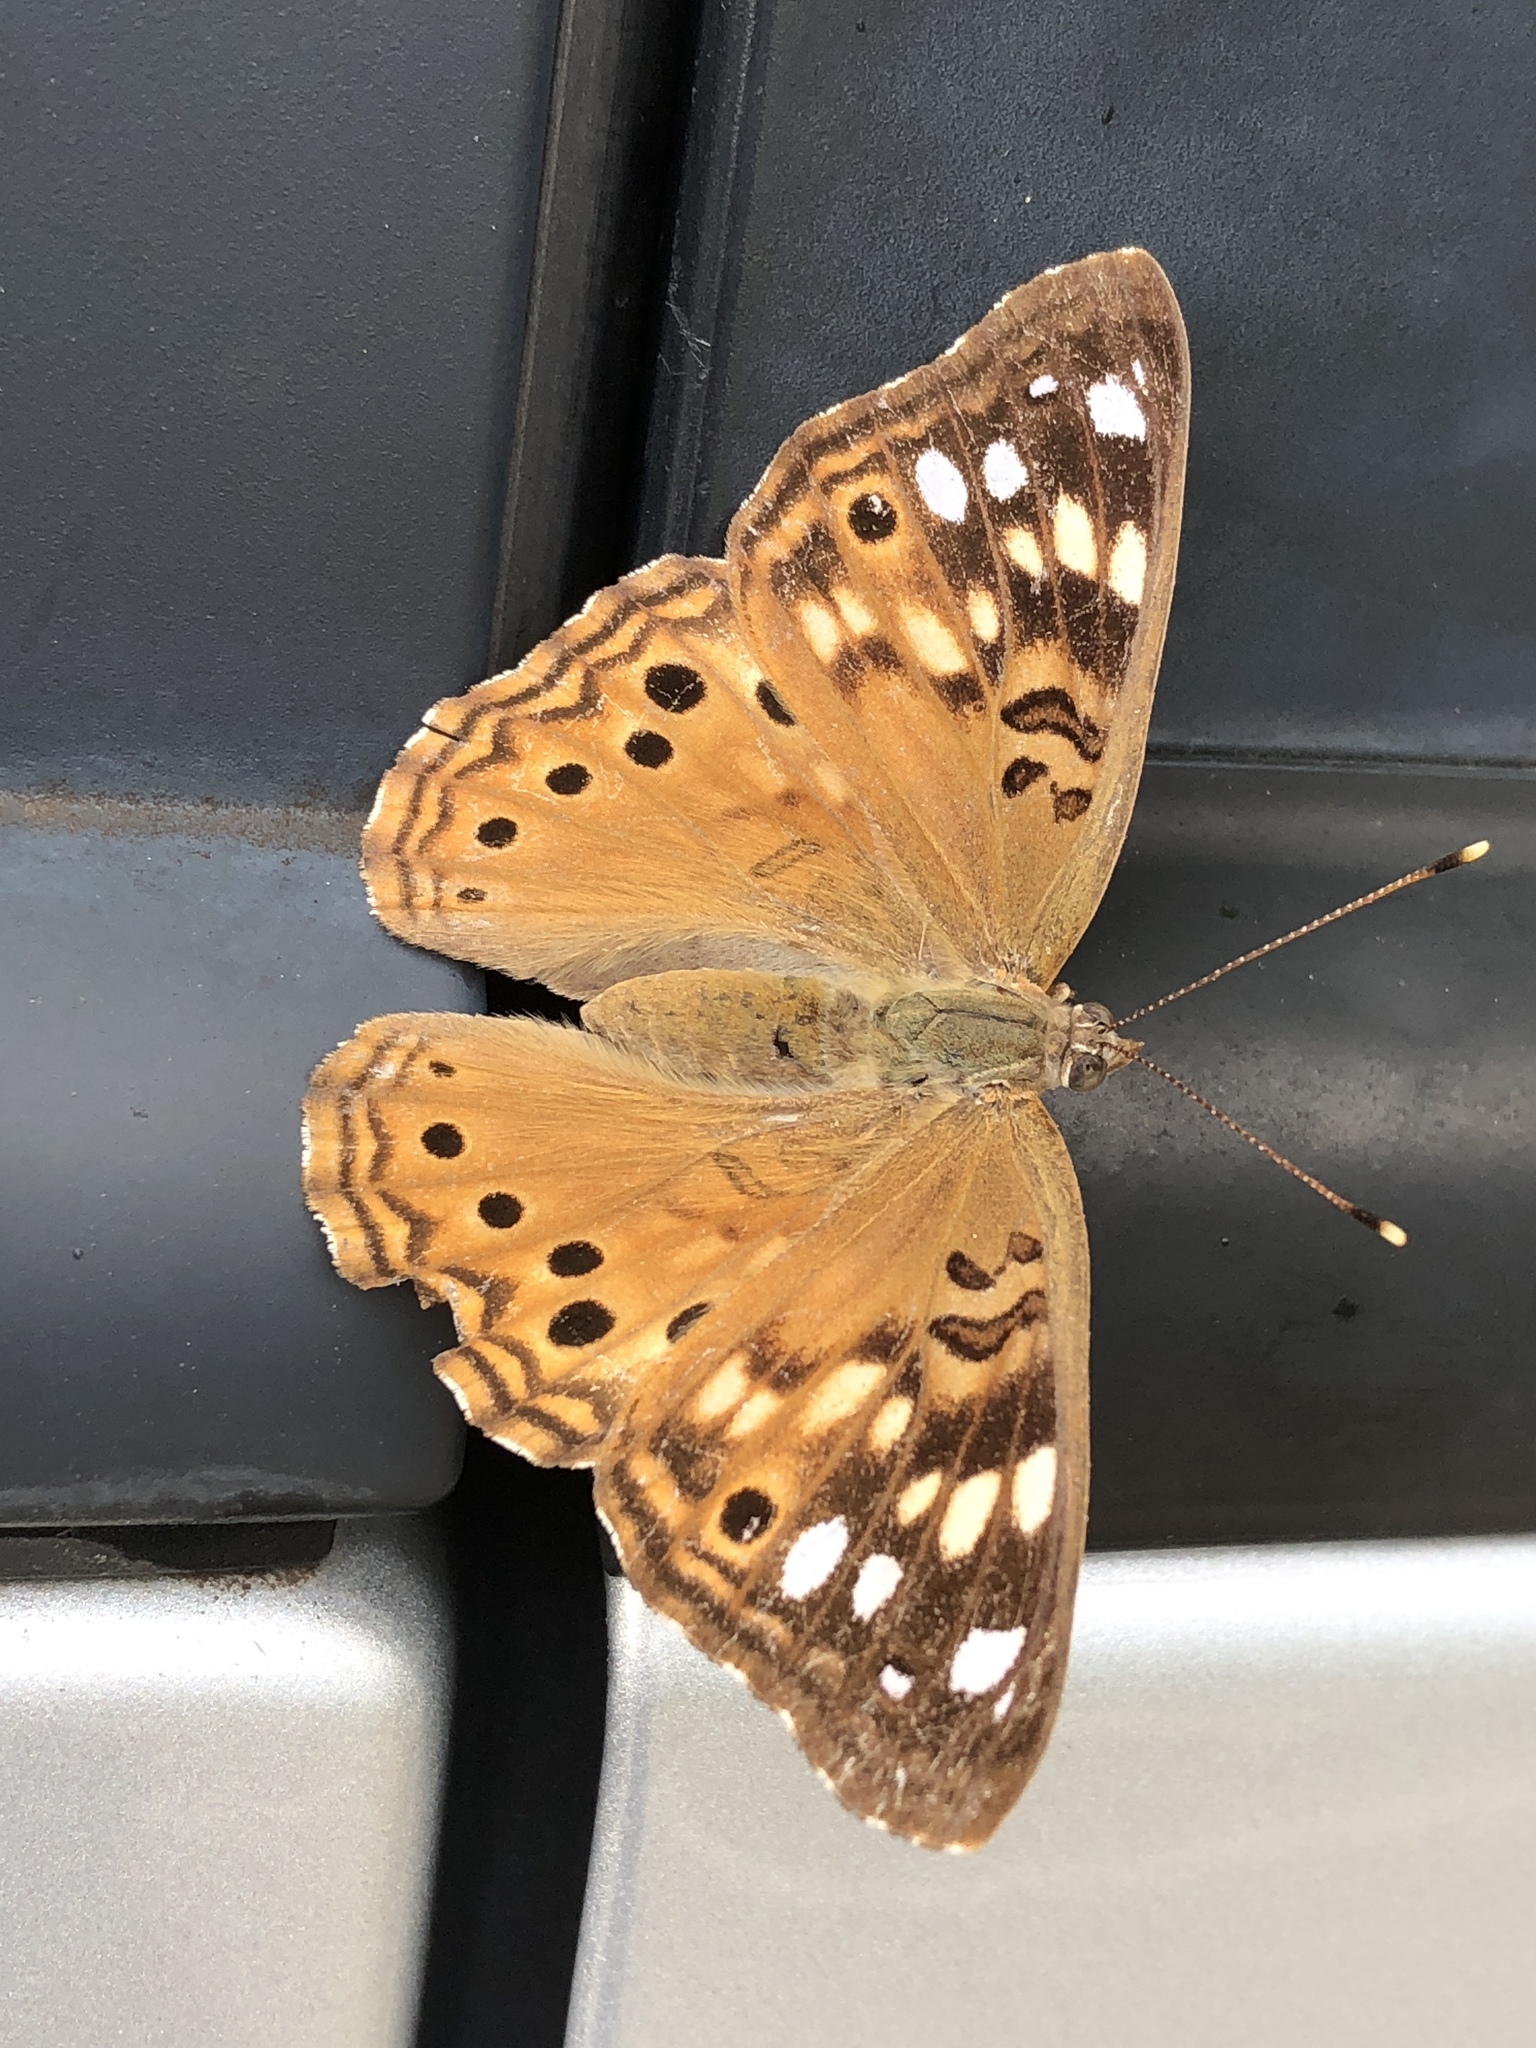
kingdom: Animalia
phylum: Arthropoda
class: Insecta
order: Lepidoptera
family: Nymphalidae
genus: Asterocampa
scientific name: Asterocampa celtis
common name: Hackberry emperor
